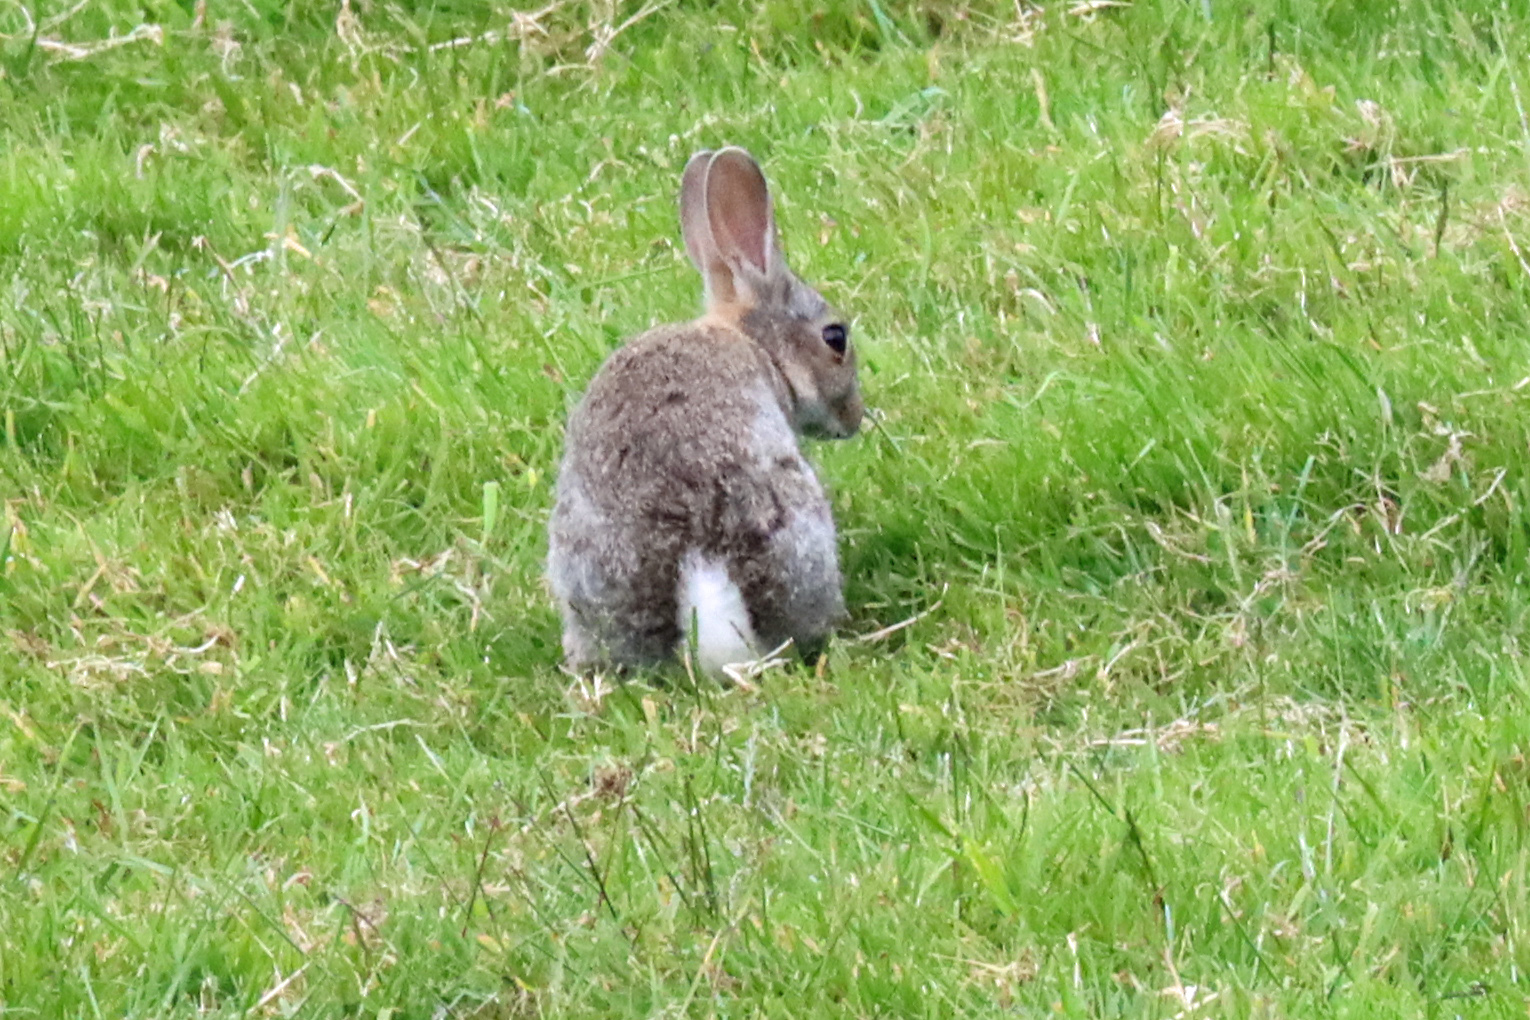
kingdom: Animalia
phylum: Chordata
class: Mammalia
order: Lagomorpha
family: Leporidae
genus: Oryctolagus
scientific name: Oryctolagus cuniculus
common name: European rabbit
